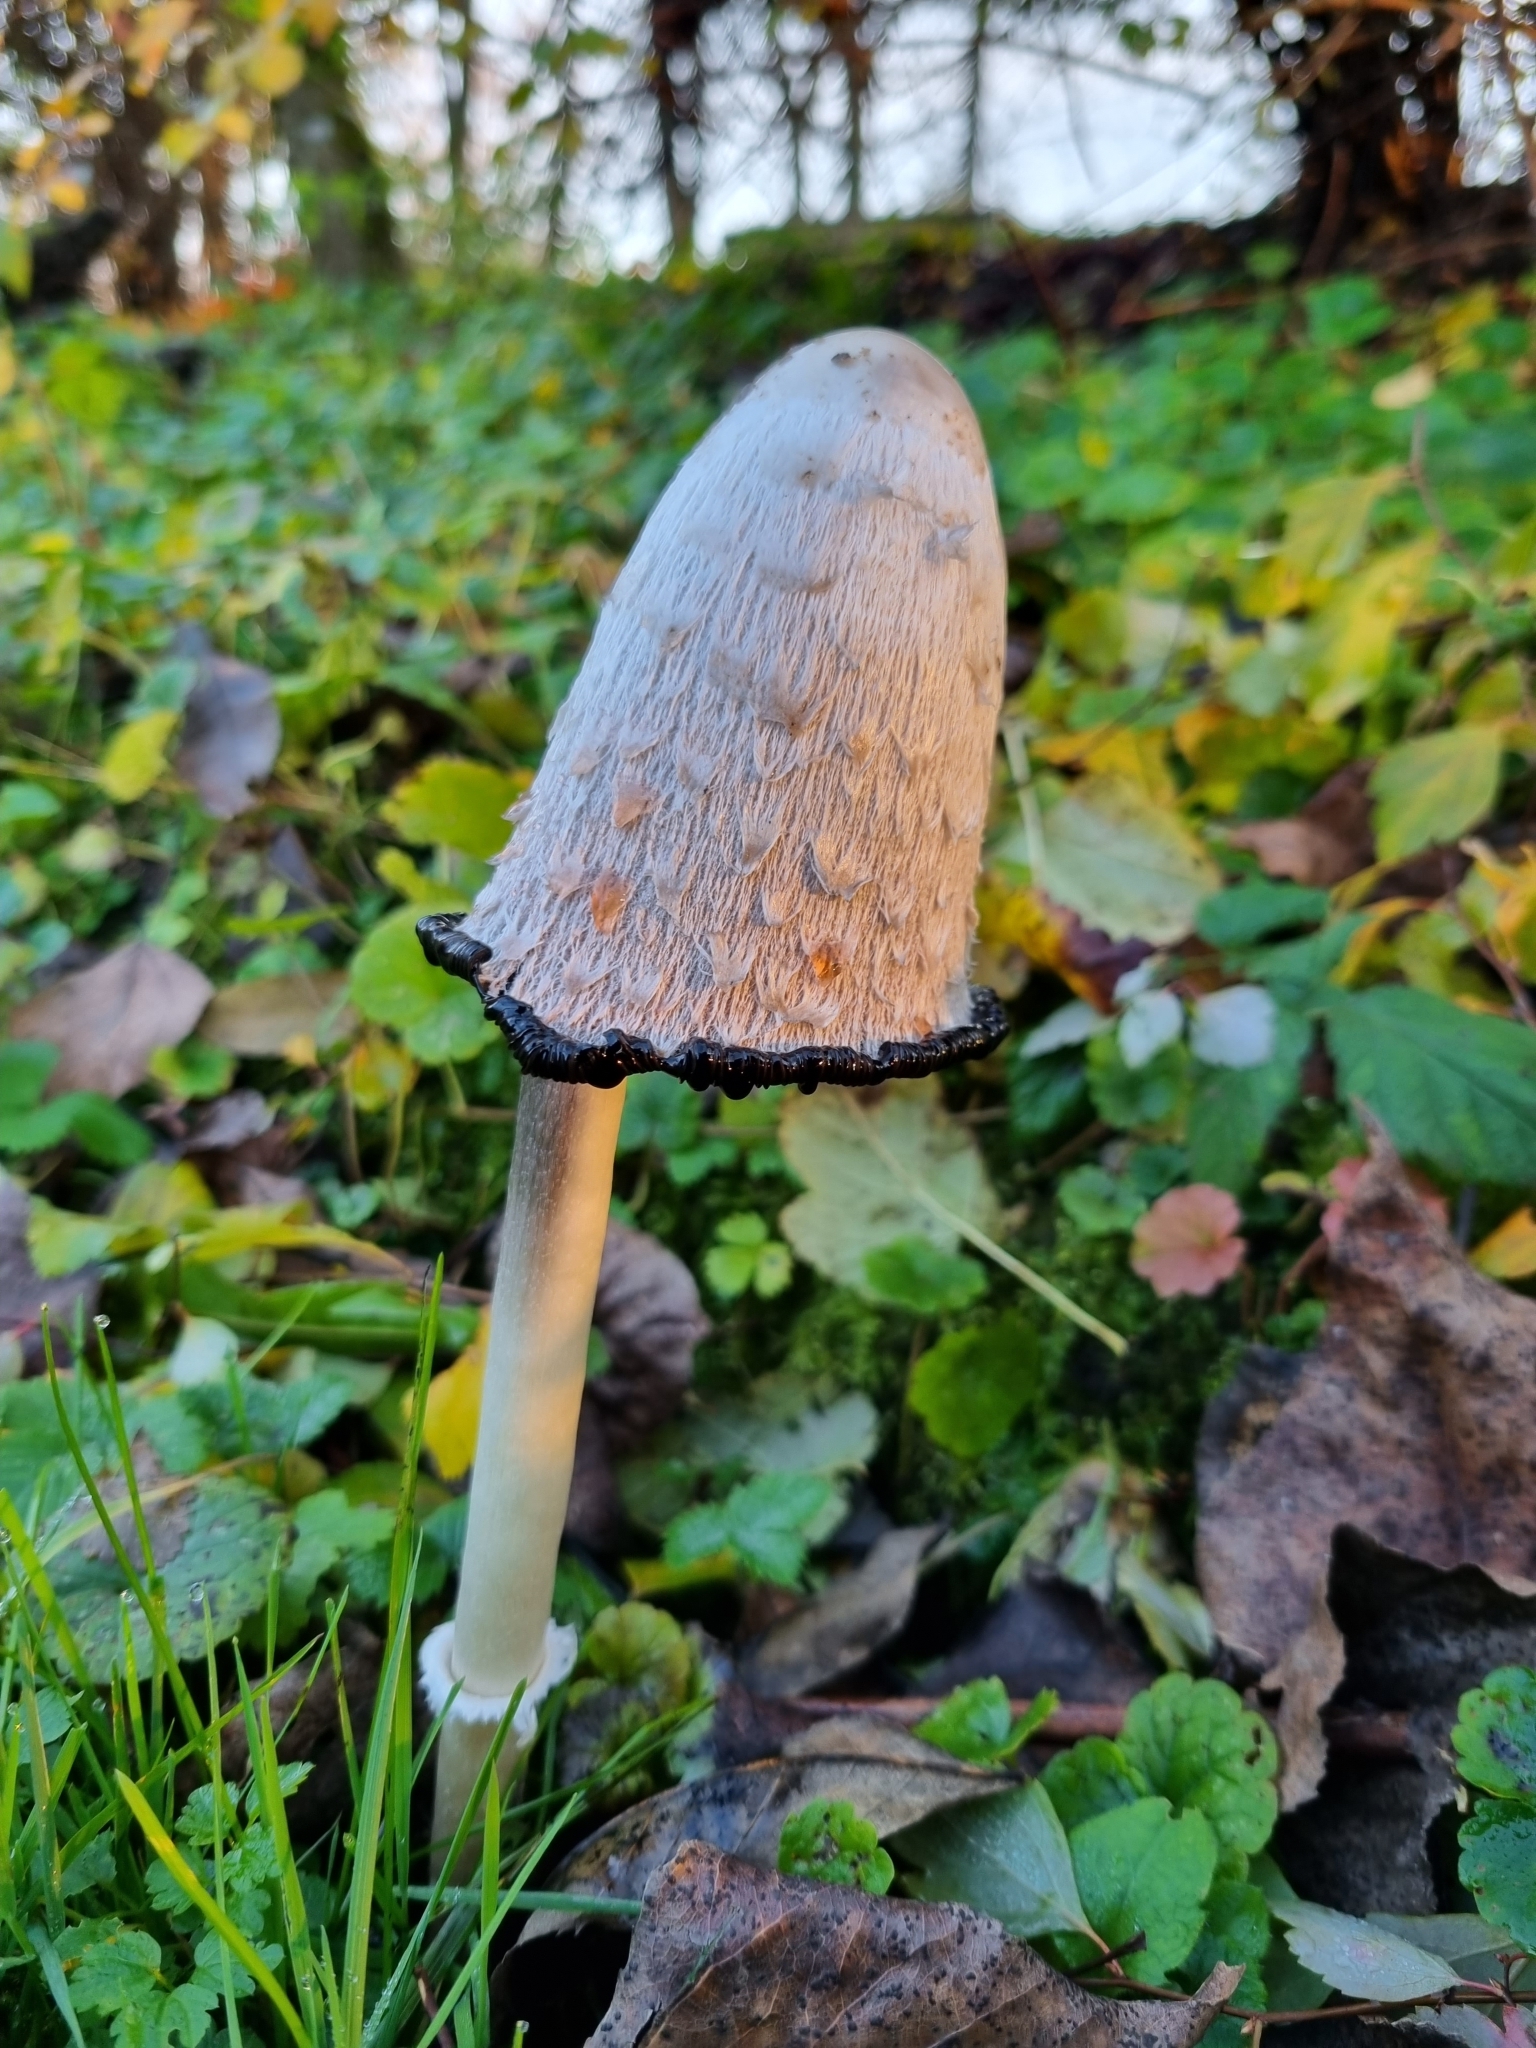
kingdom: Fungi
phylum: Basidiomycota
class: Agaricomycetes
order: Agaricales
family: Agaricaceae
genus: Coprinus
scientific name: Coprinus comatus
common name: Lawyer's wig
